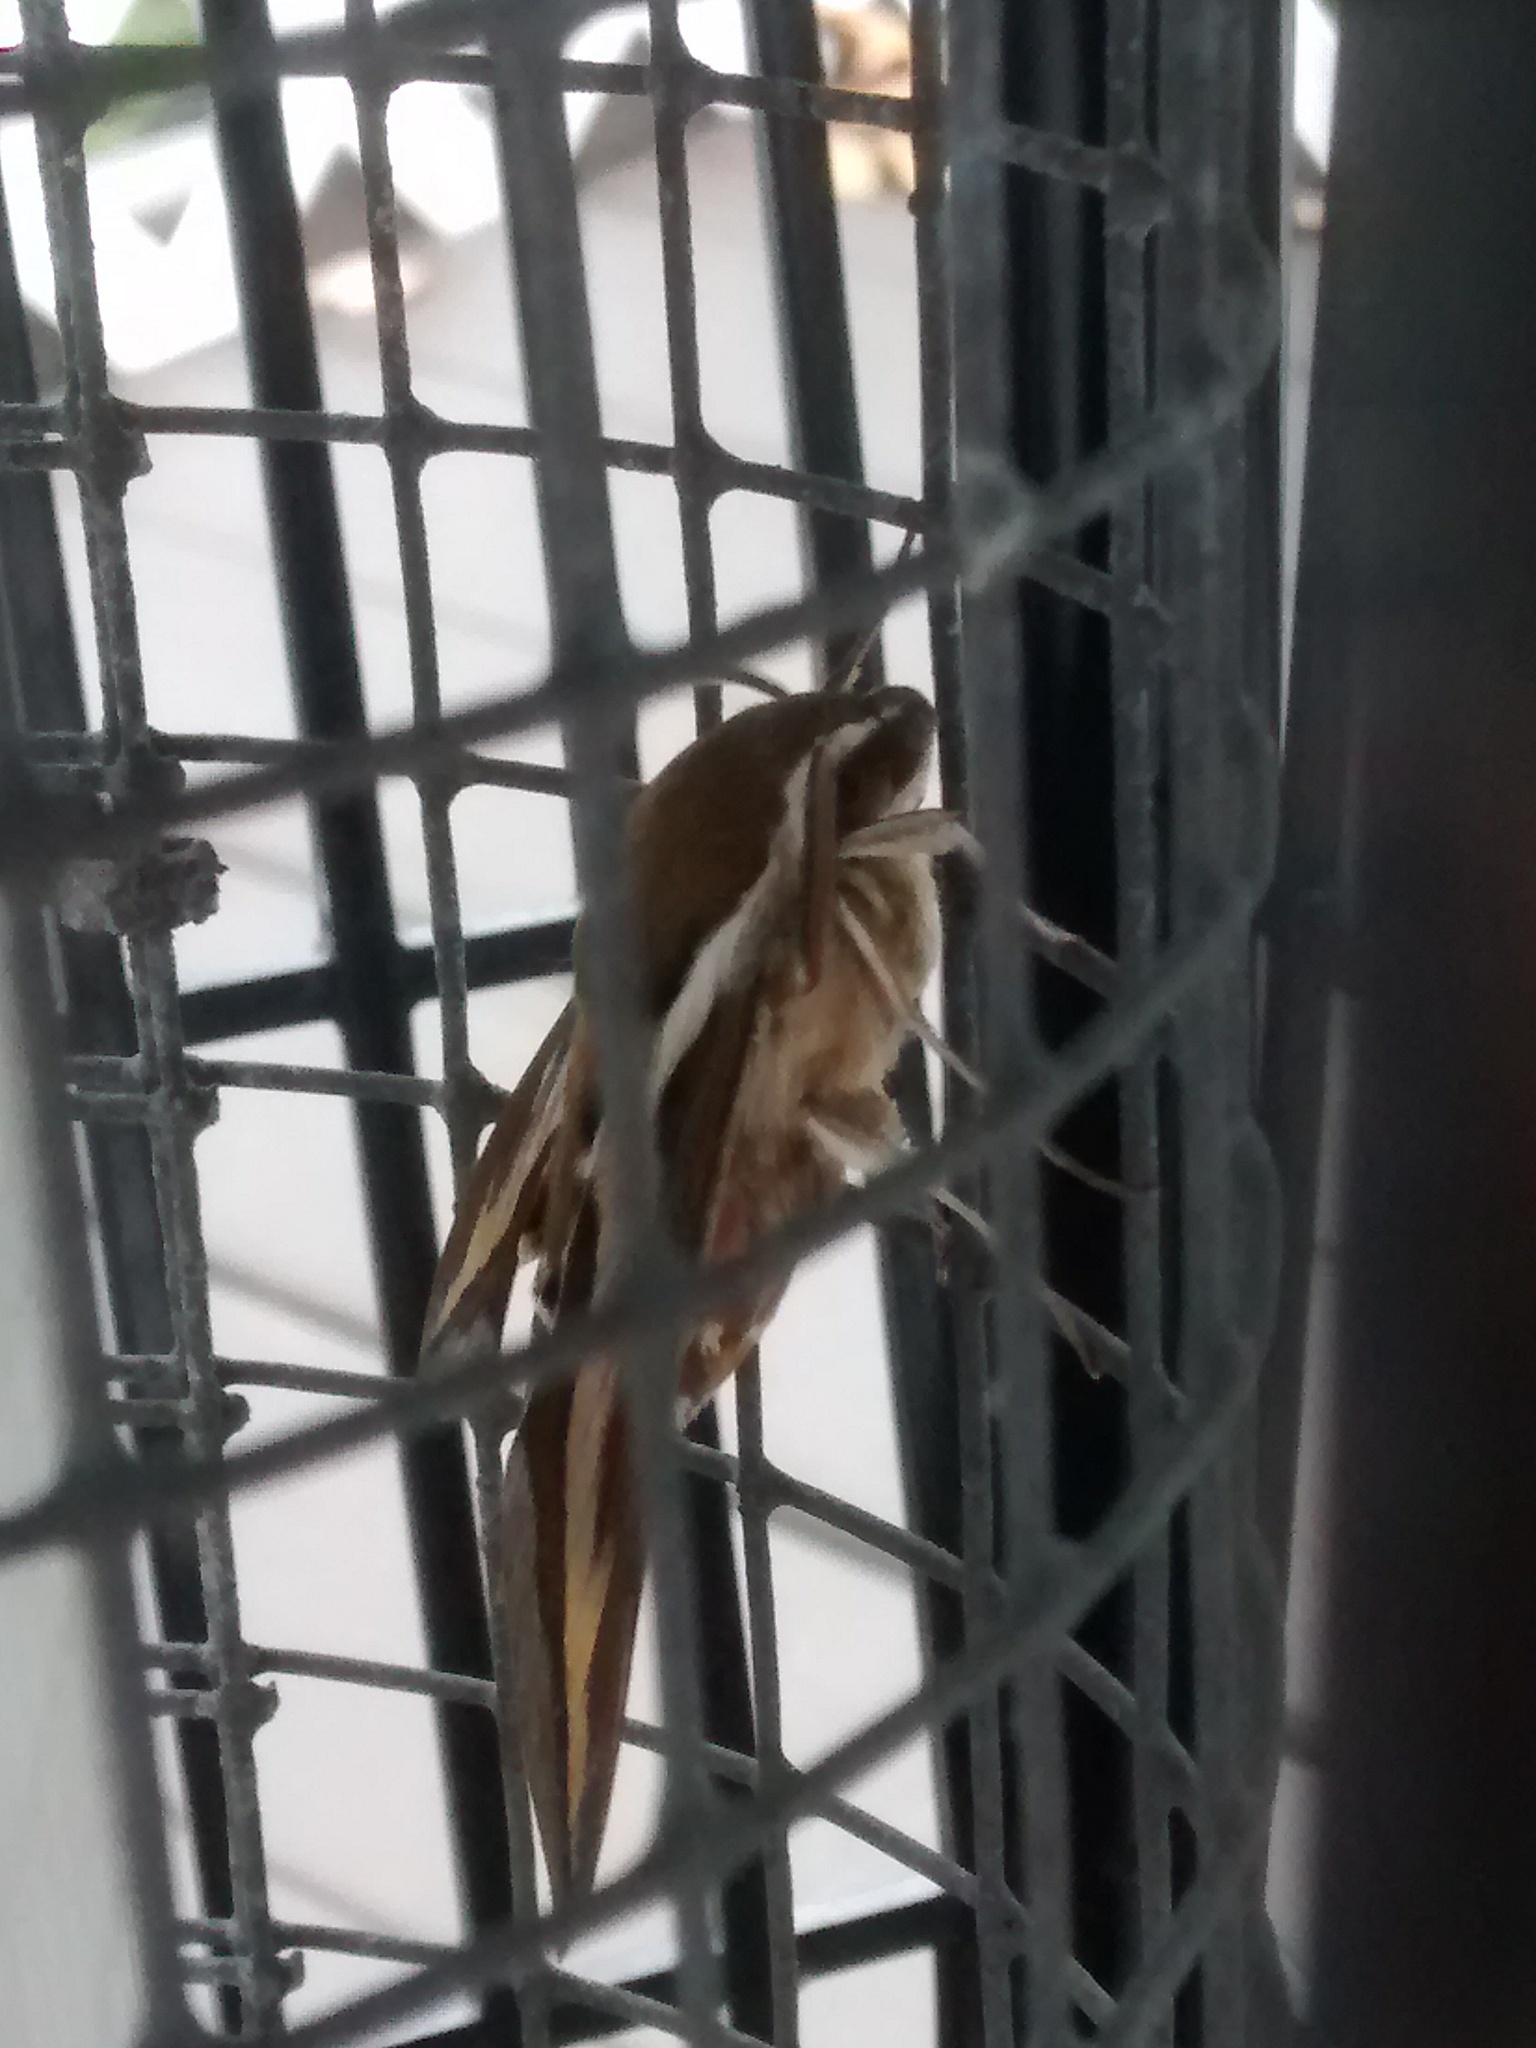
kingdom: Animalia
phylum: Arthropoda
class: Insecta
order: Lepidoptera
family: Sphingidae
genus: Hyles
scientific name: Hyles gallii
